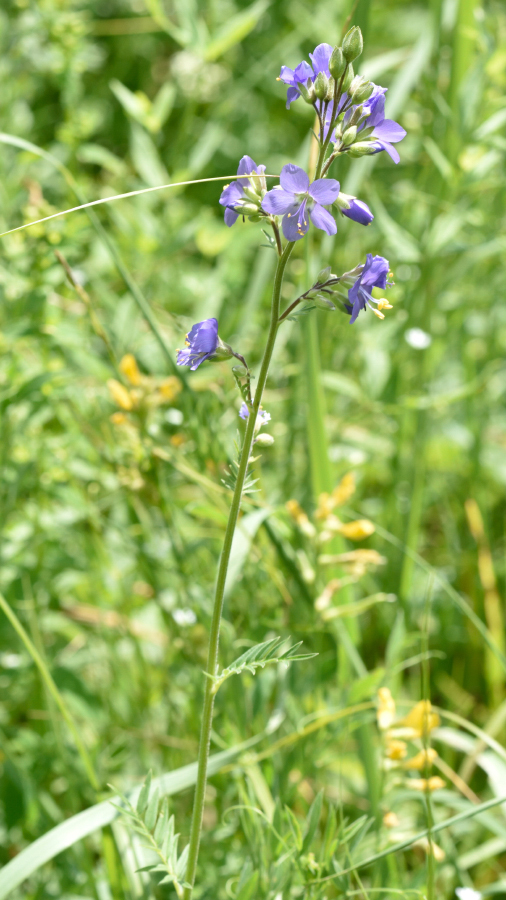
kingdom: Plantae
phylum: Tracheophyta
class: Magnoliopsida
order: Ericales
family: Polemoniaceae
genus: Polemonium
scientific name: Polemonium caeruleum
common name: Jacob's-ladder
